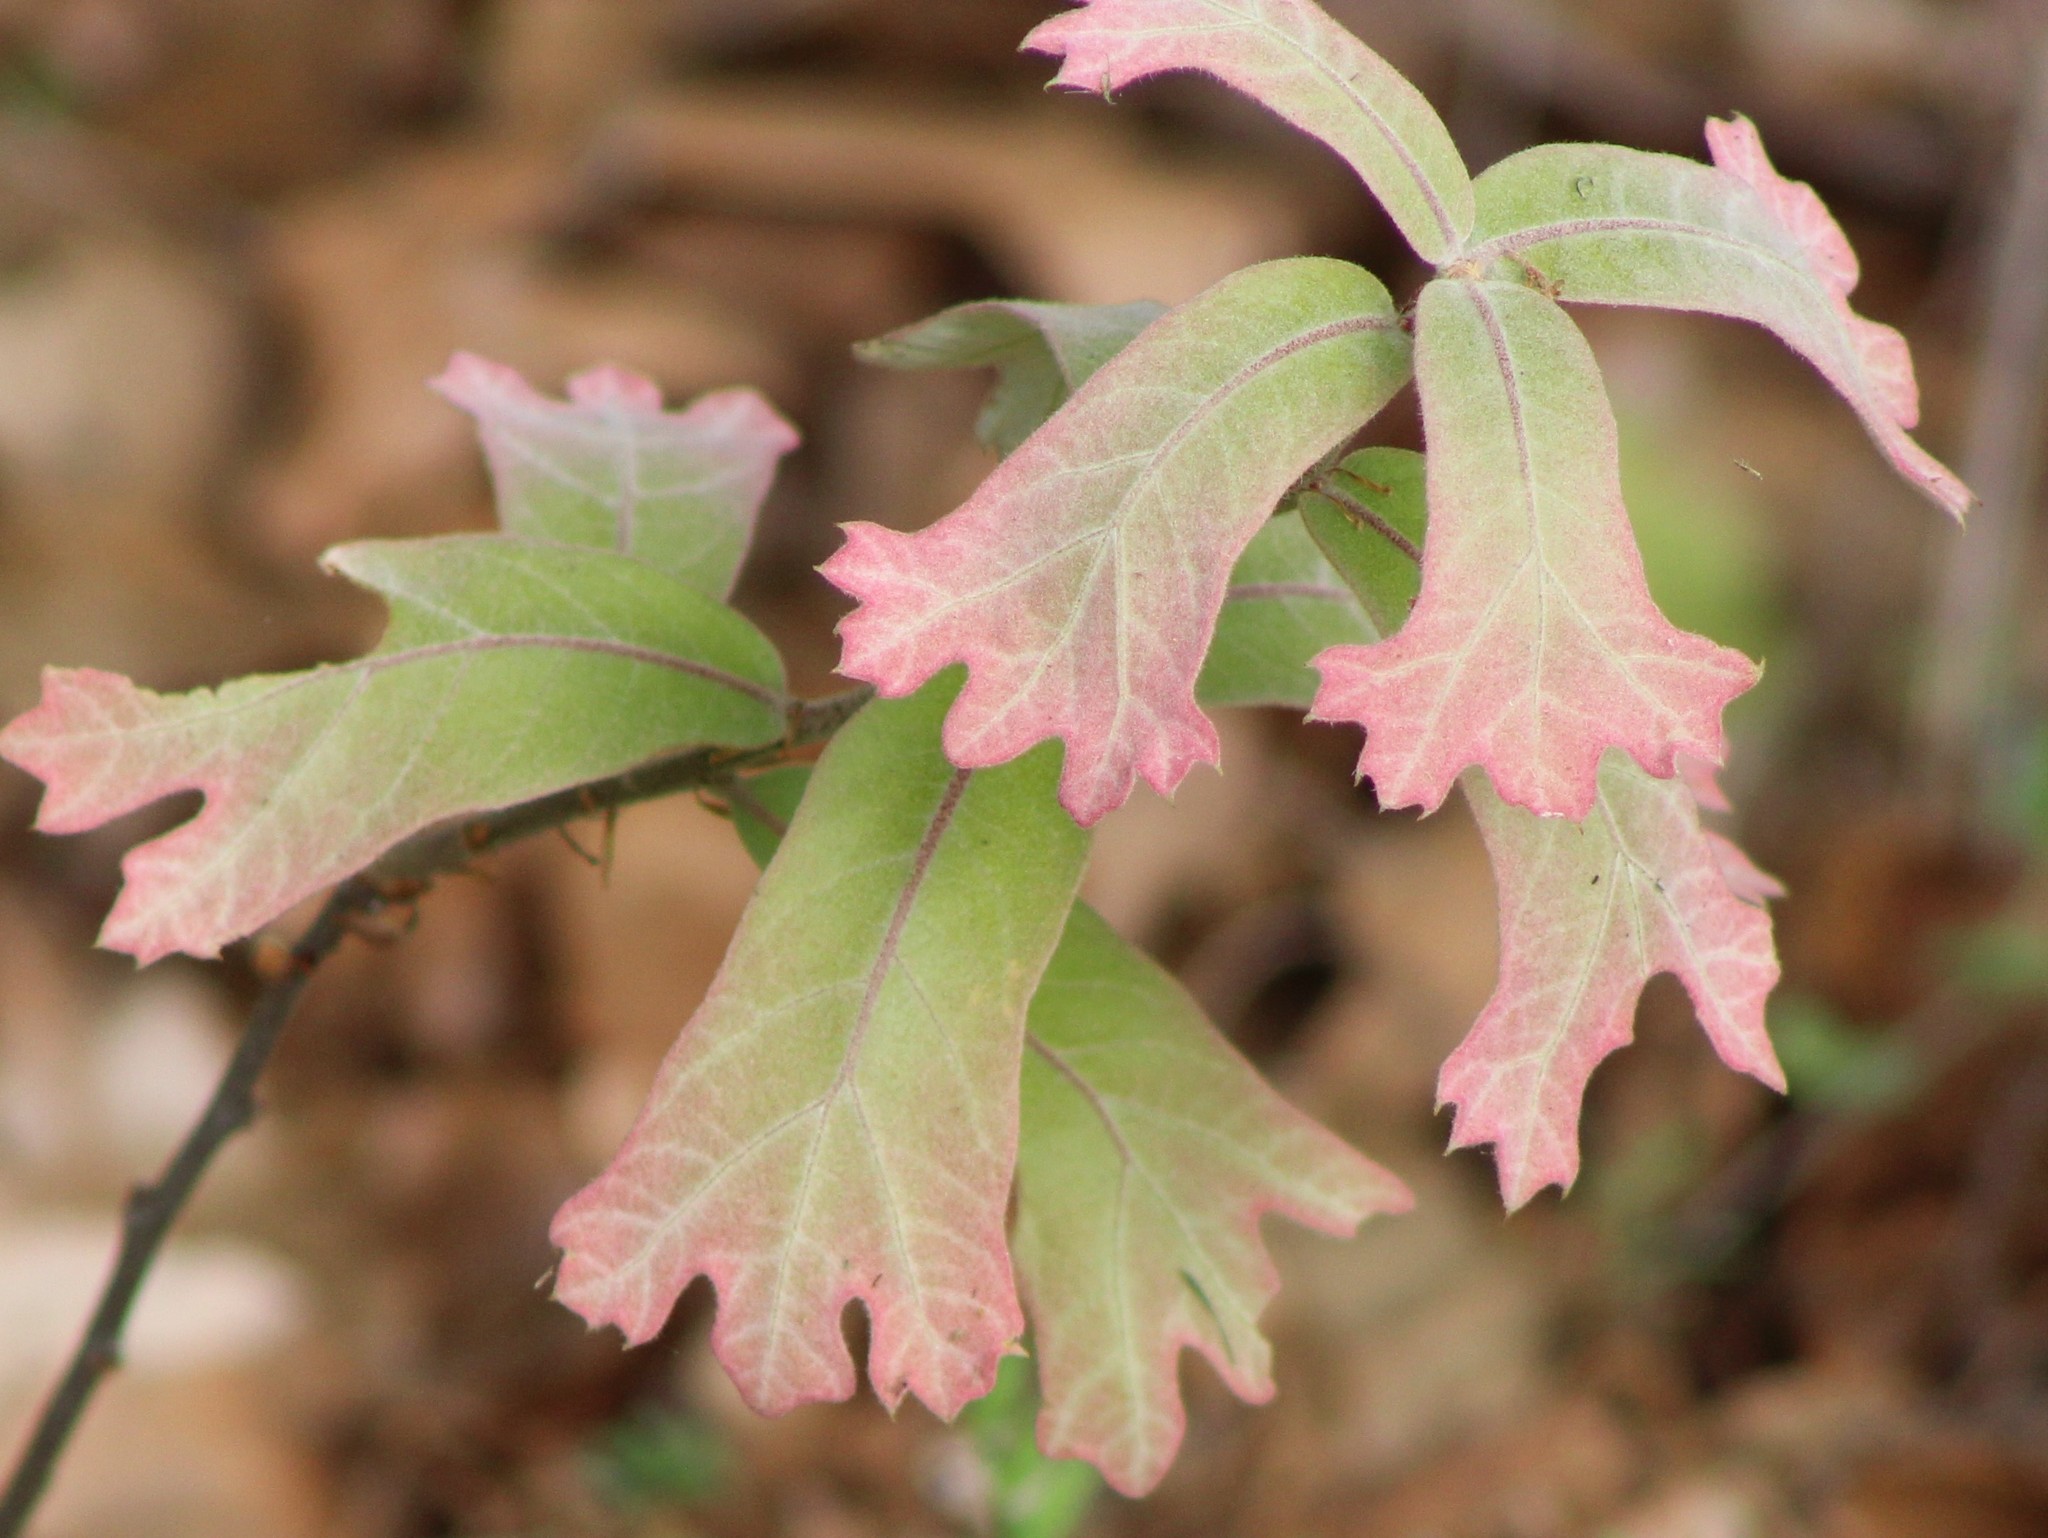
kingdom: Plantae
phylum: Tracheophyta
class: Magnoliopsida
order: Fagales
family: Fagaceae
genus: Quercus
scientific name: Quercus marilandica
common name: Blackjack oak
